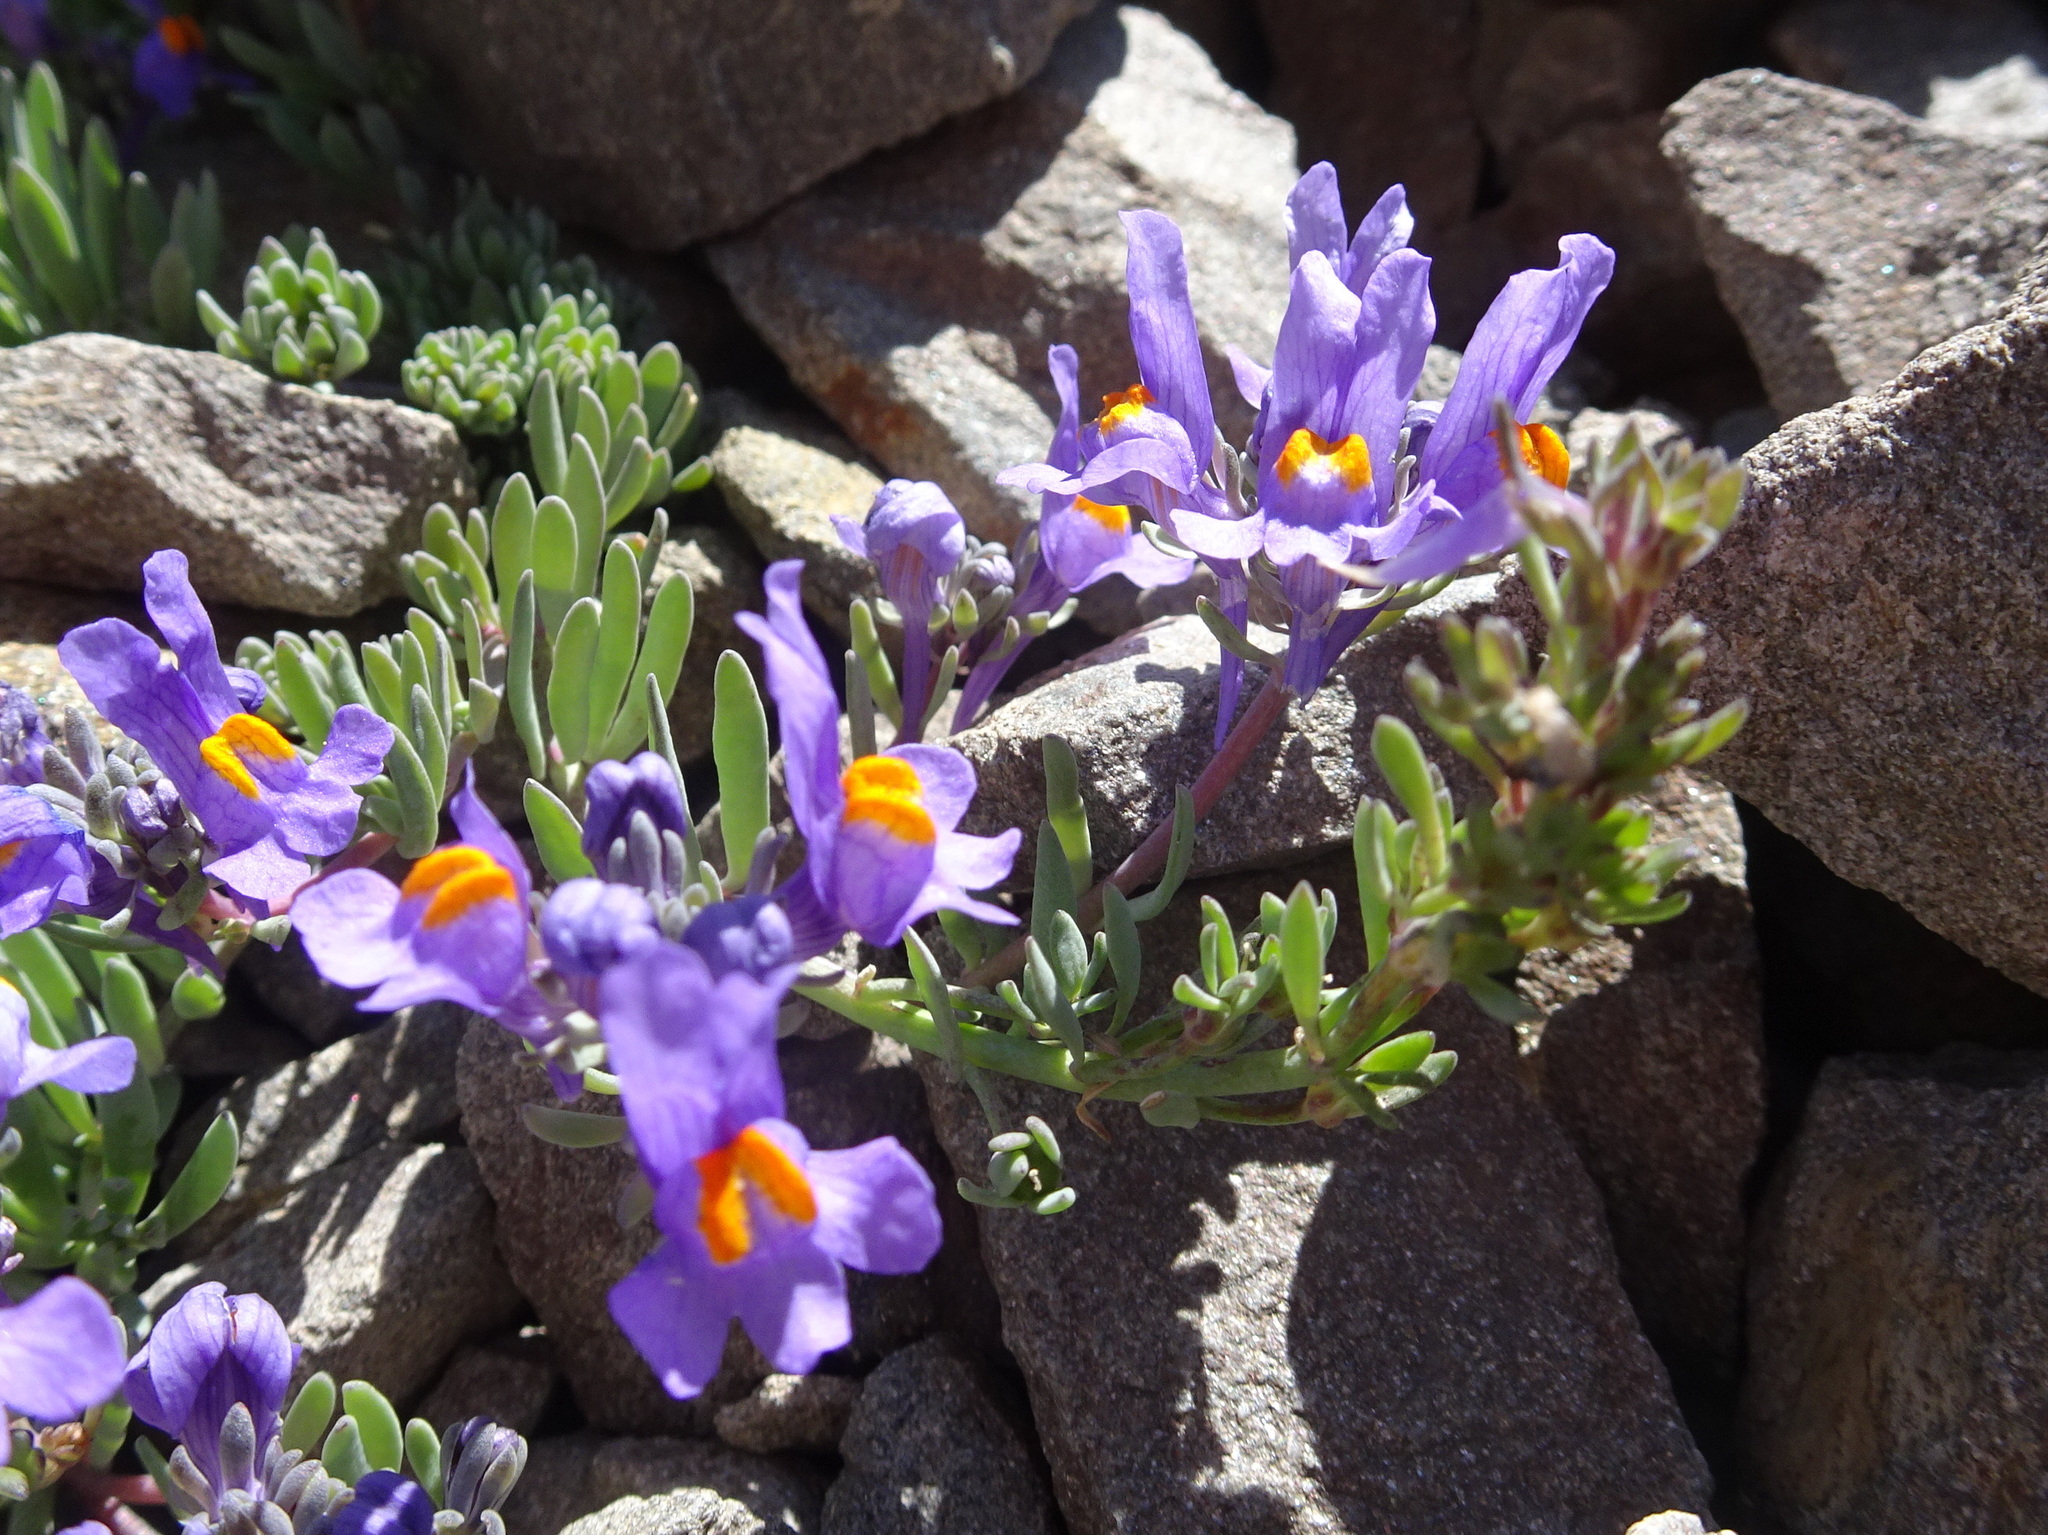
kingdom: Plantae
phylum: Tracheophyta
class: Magnoliopsida
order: Lamiales
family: Plantaginaceae
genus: Linaria
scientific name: Linaria alpina
